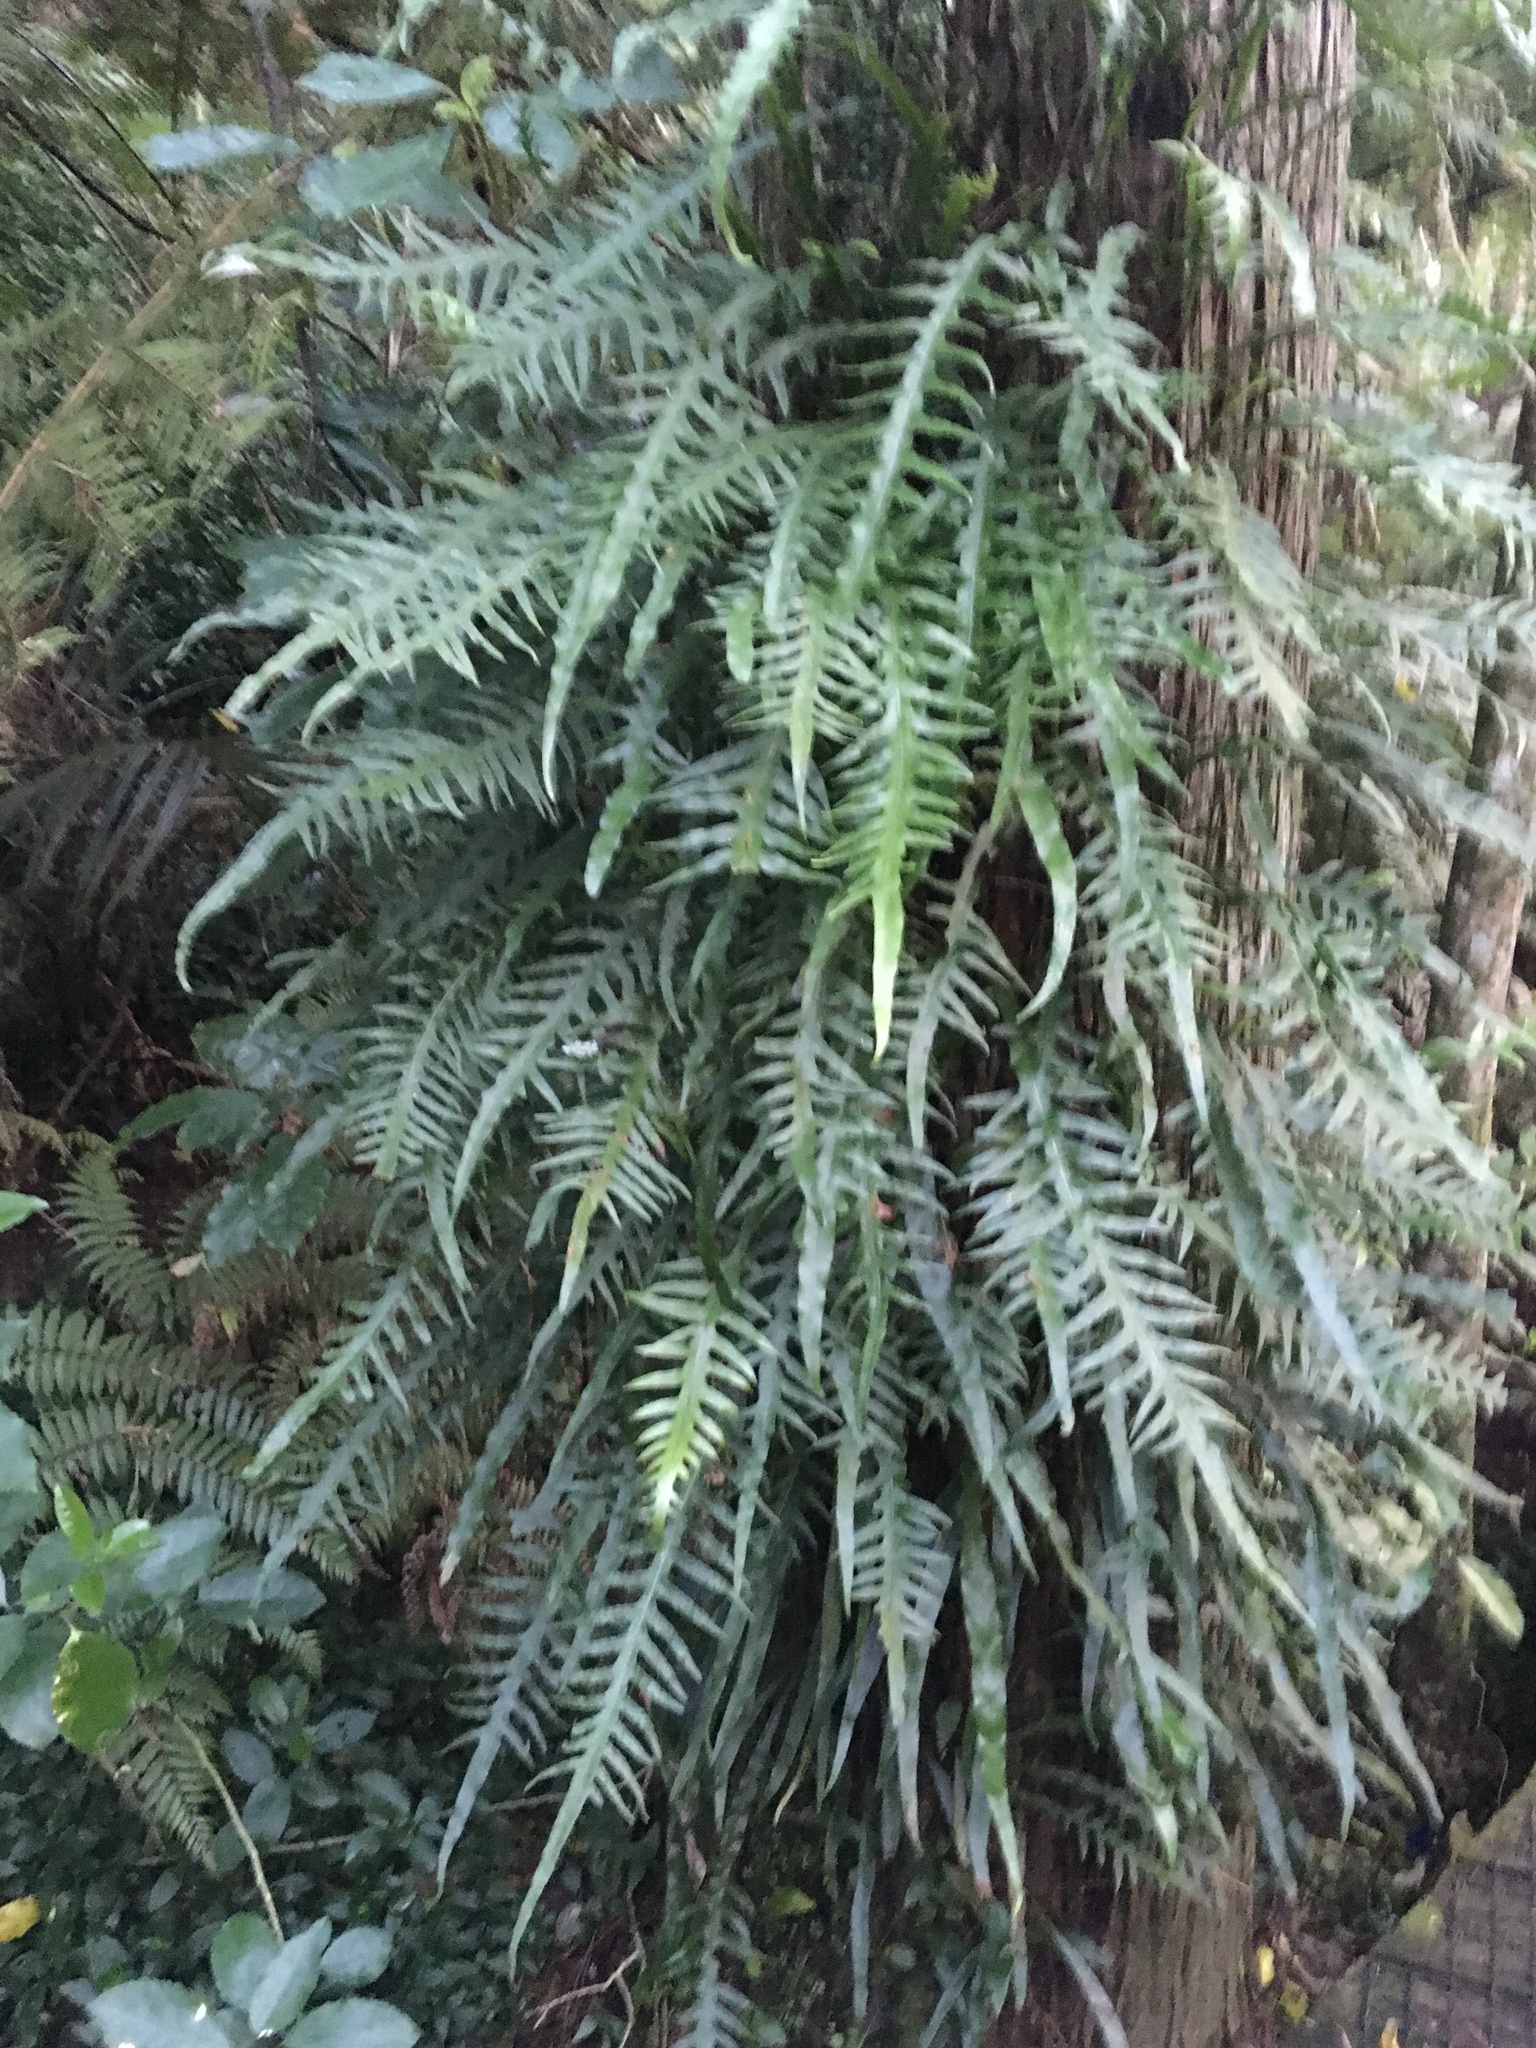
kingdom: Plantae
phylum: Tracheophyta
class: Polypodiopsida
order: Polypodiales
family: Polypodiaceae
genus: Lecanopteris
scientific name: Lecanopteris scandens
